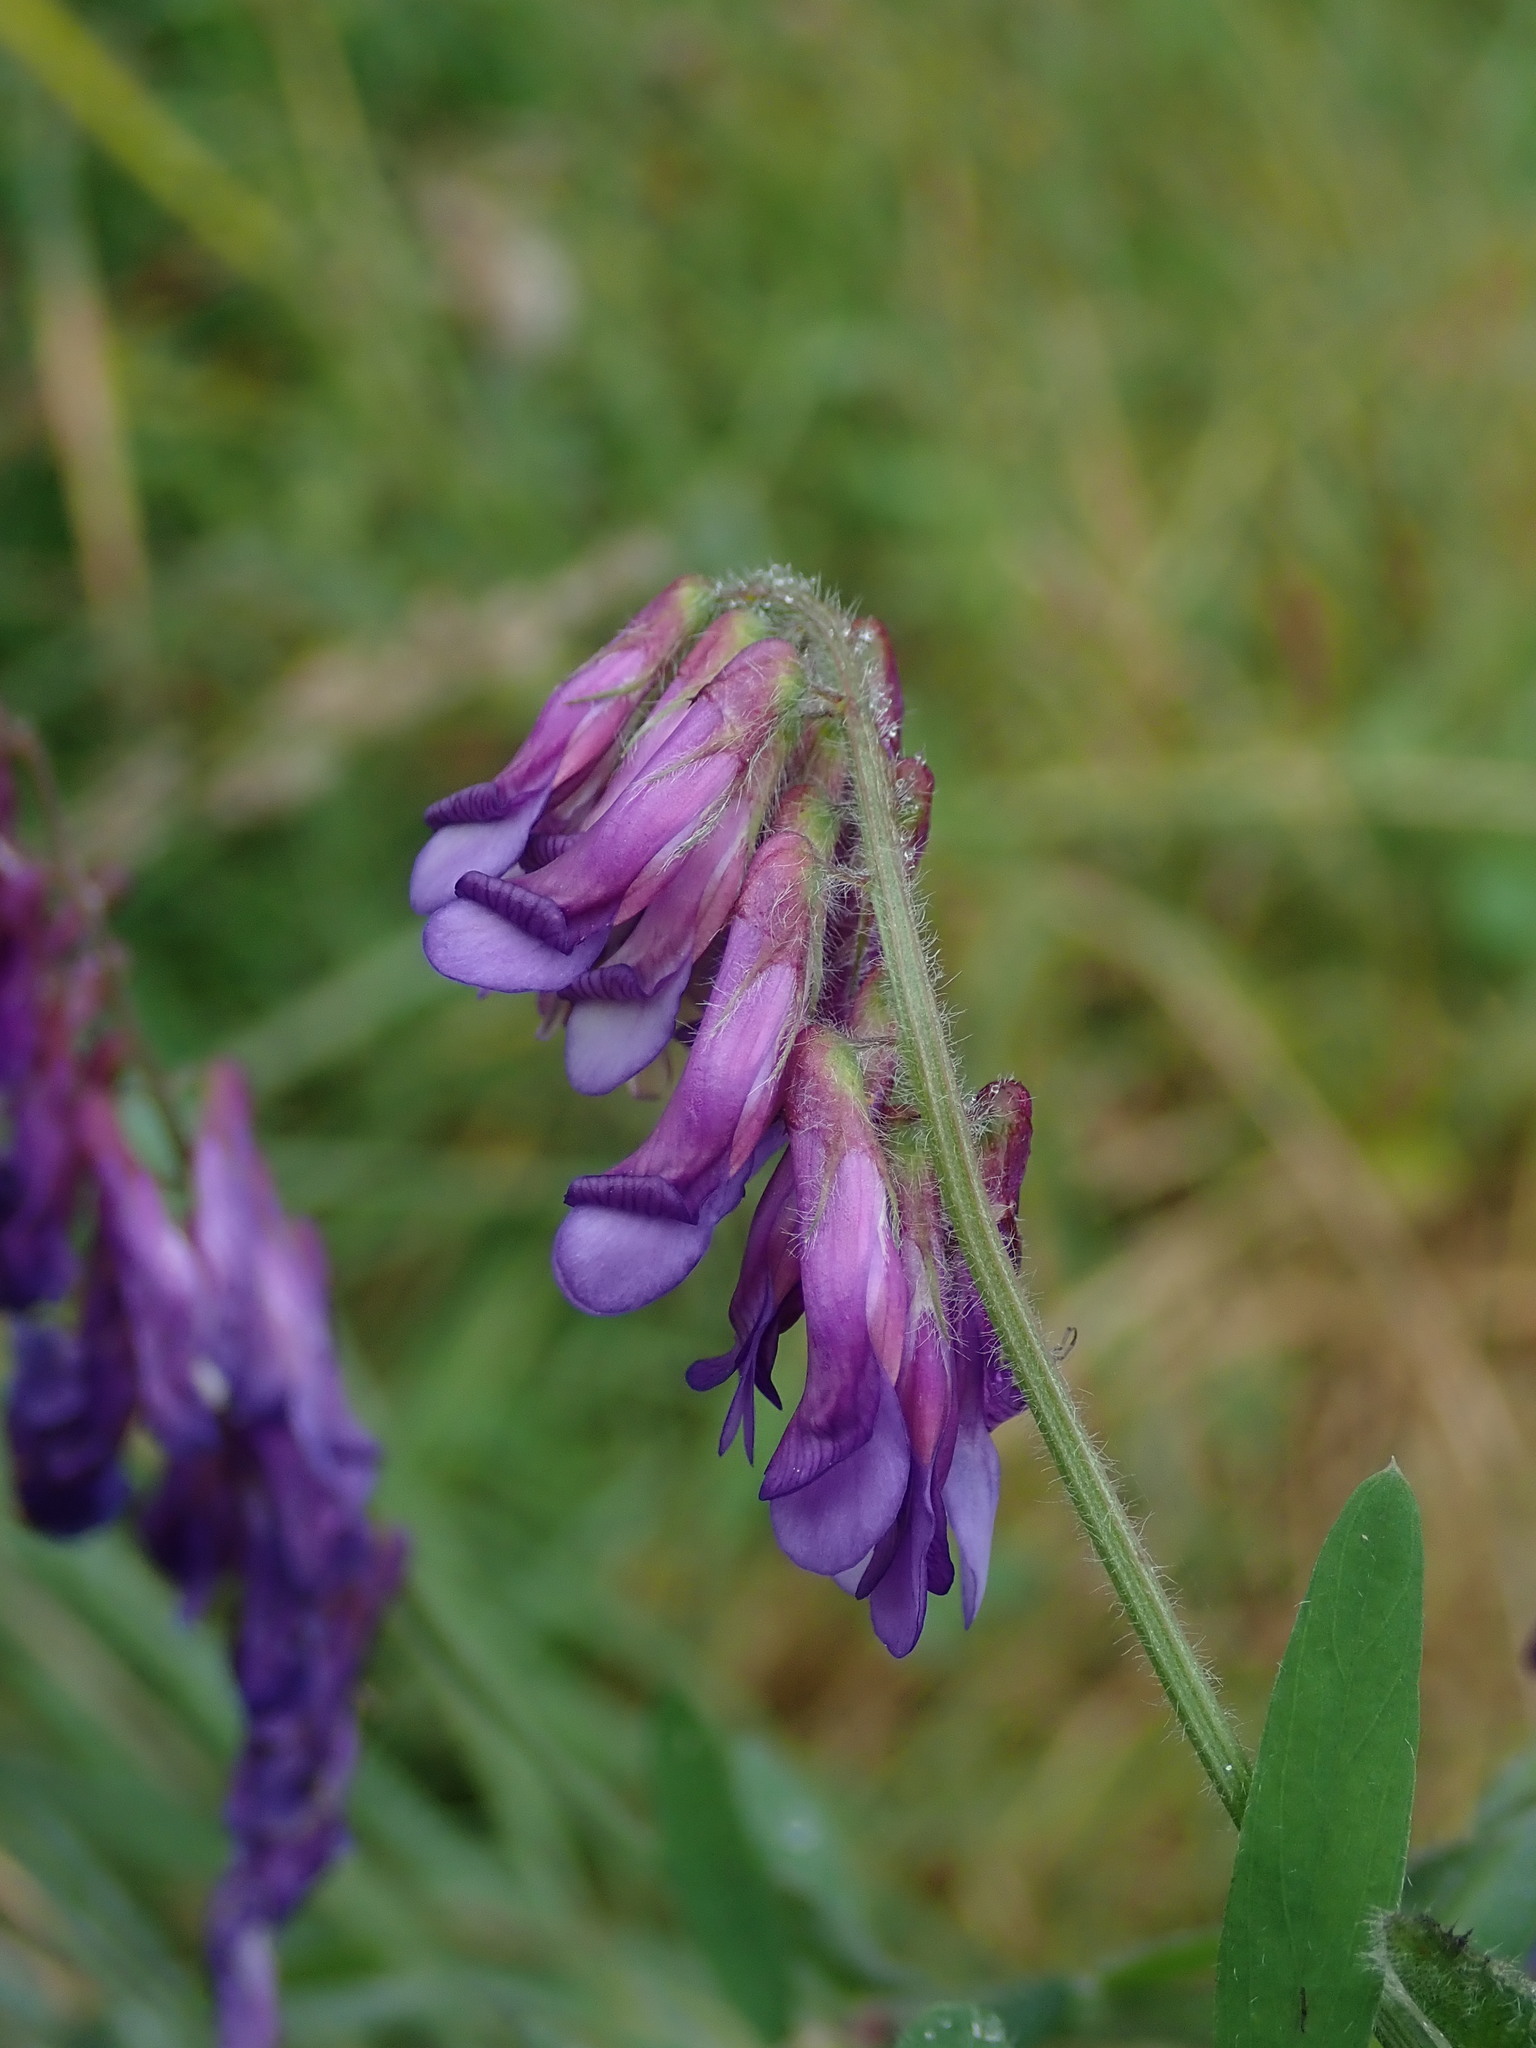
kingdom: Plantae
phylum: Tracheophyta
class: Magnoliopsida
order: Fabales
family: Fabaceae
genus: Vicia
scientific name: Vicia villosa
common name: Fodder vetch
